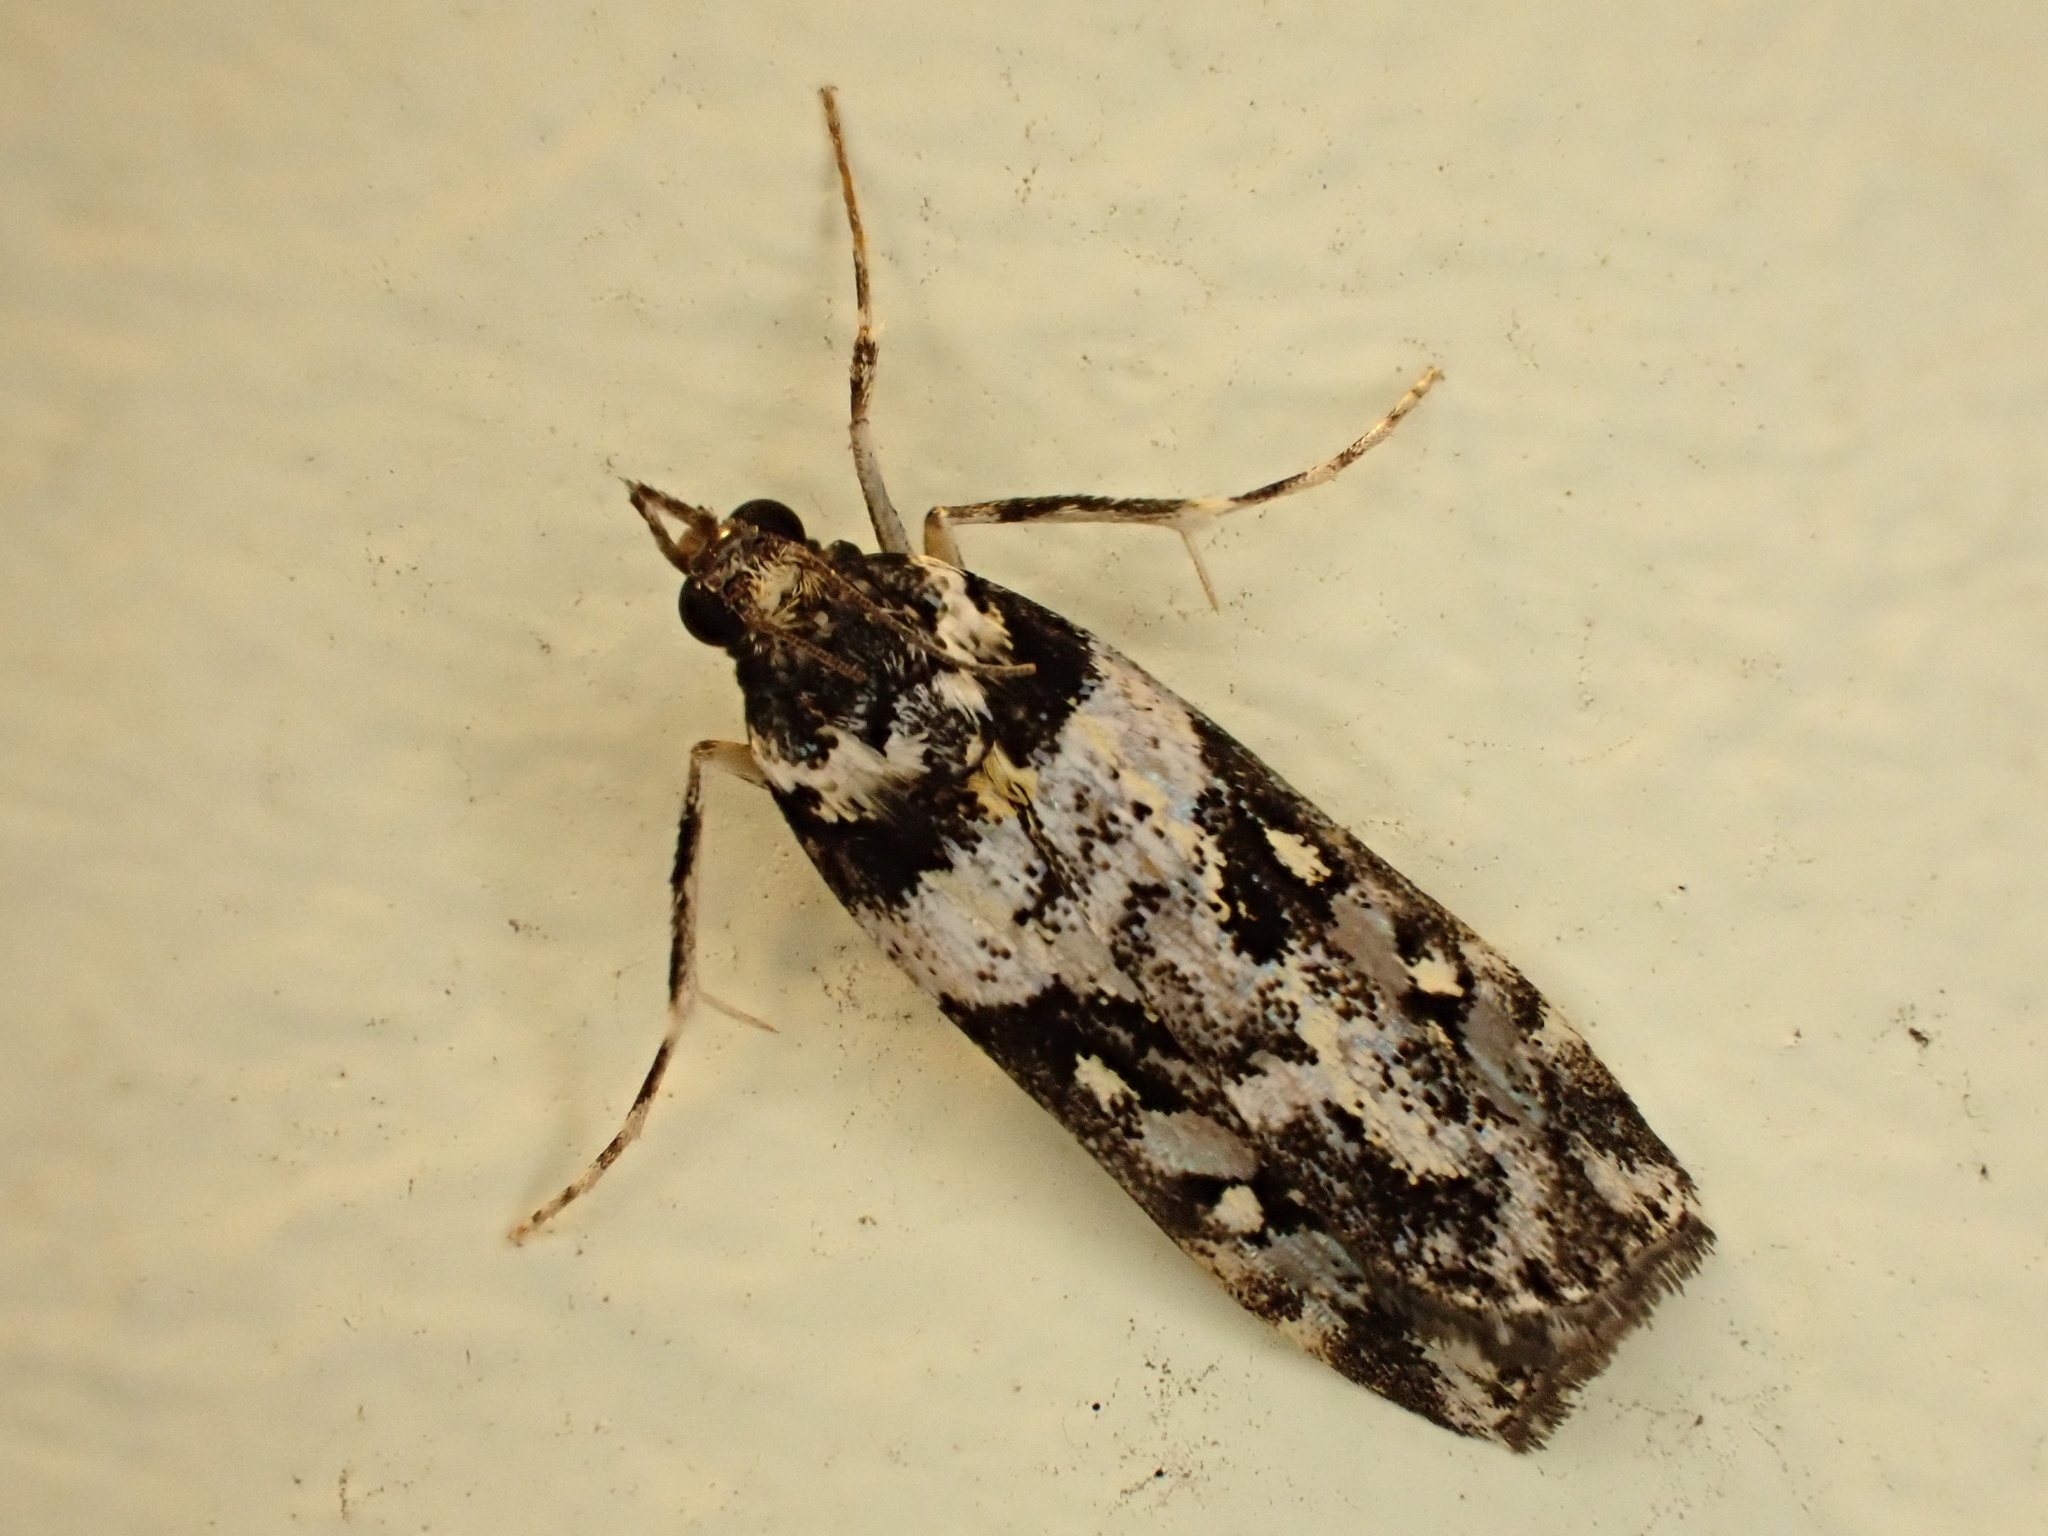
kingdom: Animalia
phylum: Arthropoda
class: Insecta
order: Lepidoptera
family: Crambidae
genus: Eudonia
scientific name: Eudonia diphtheralis
